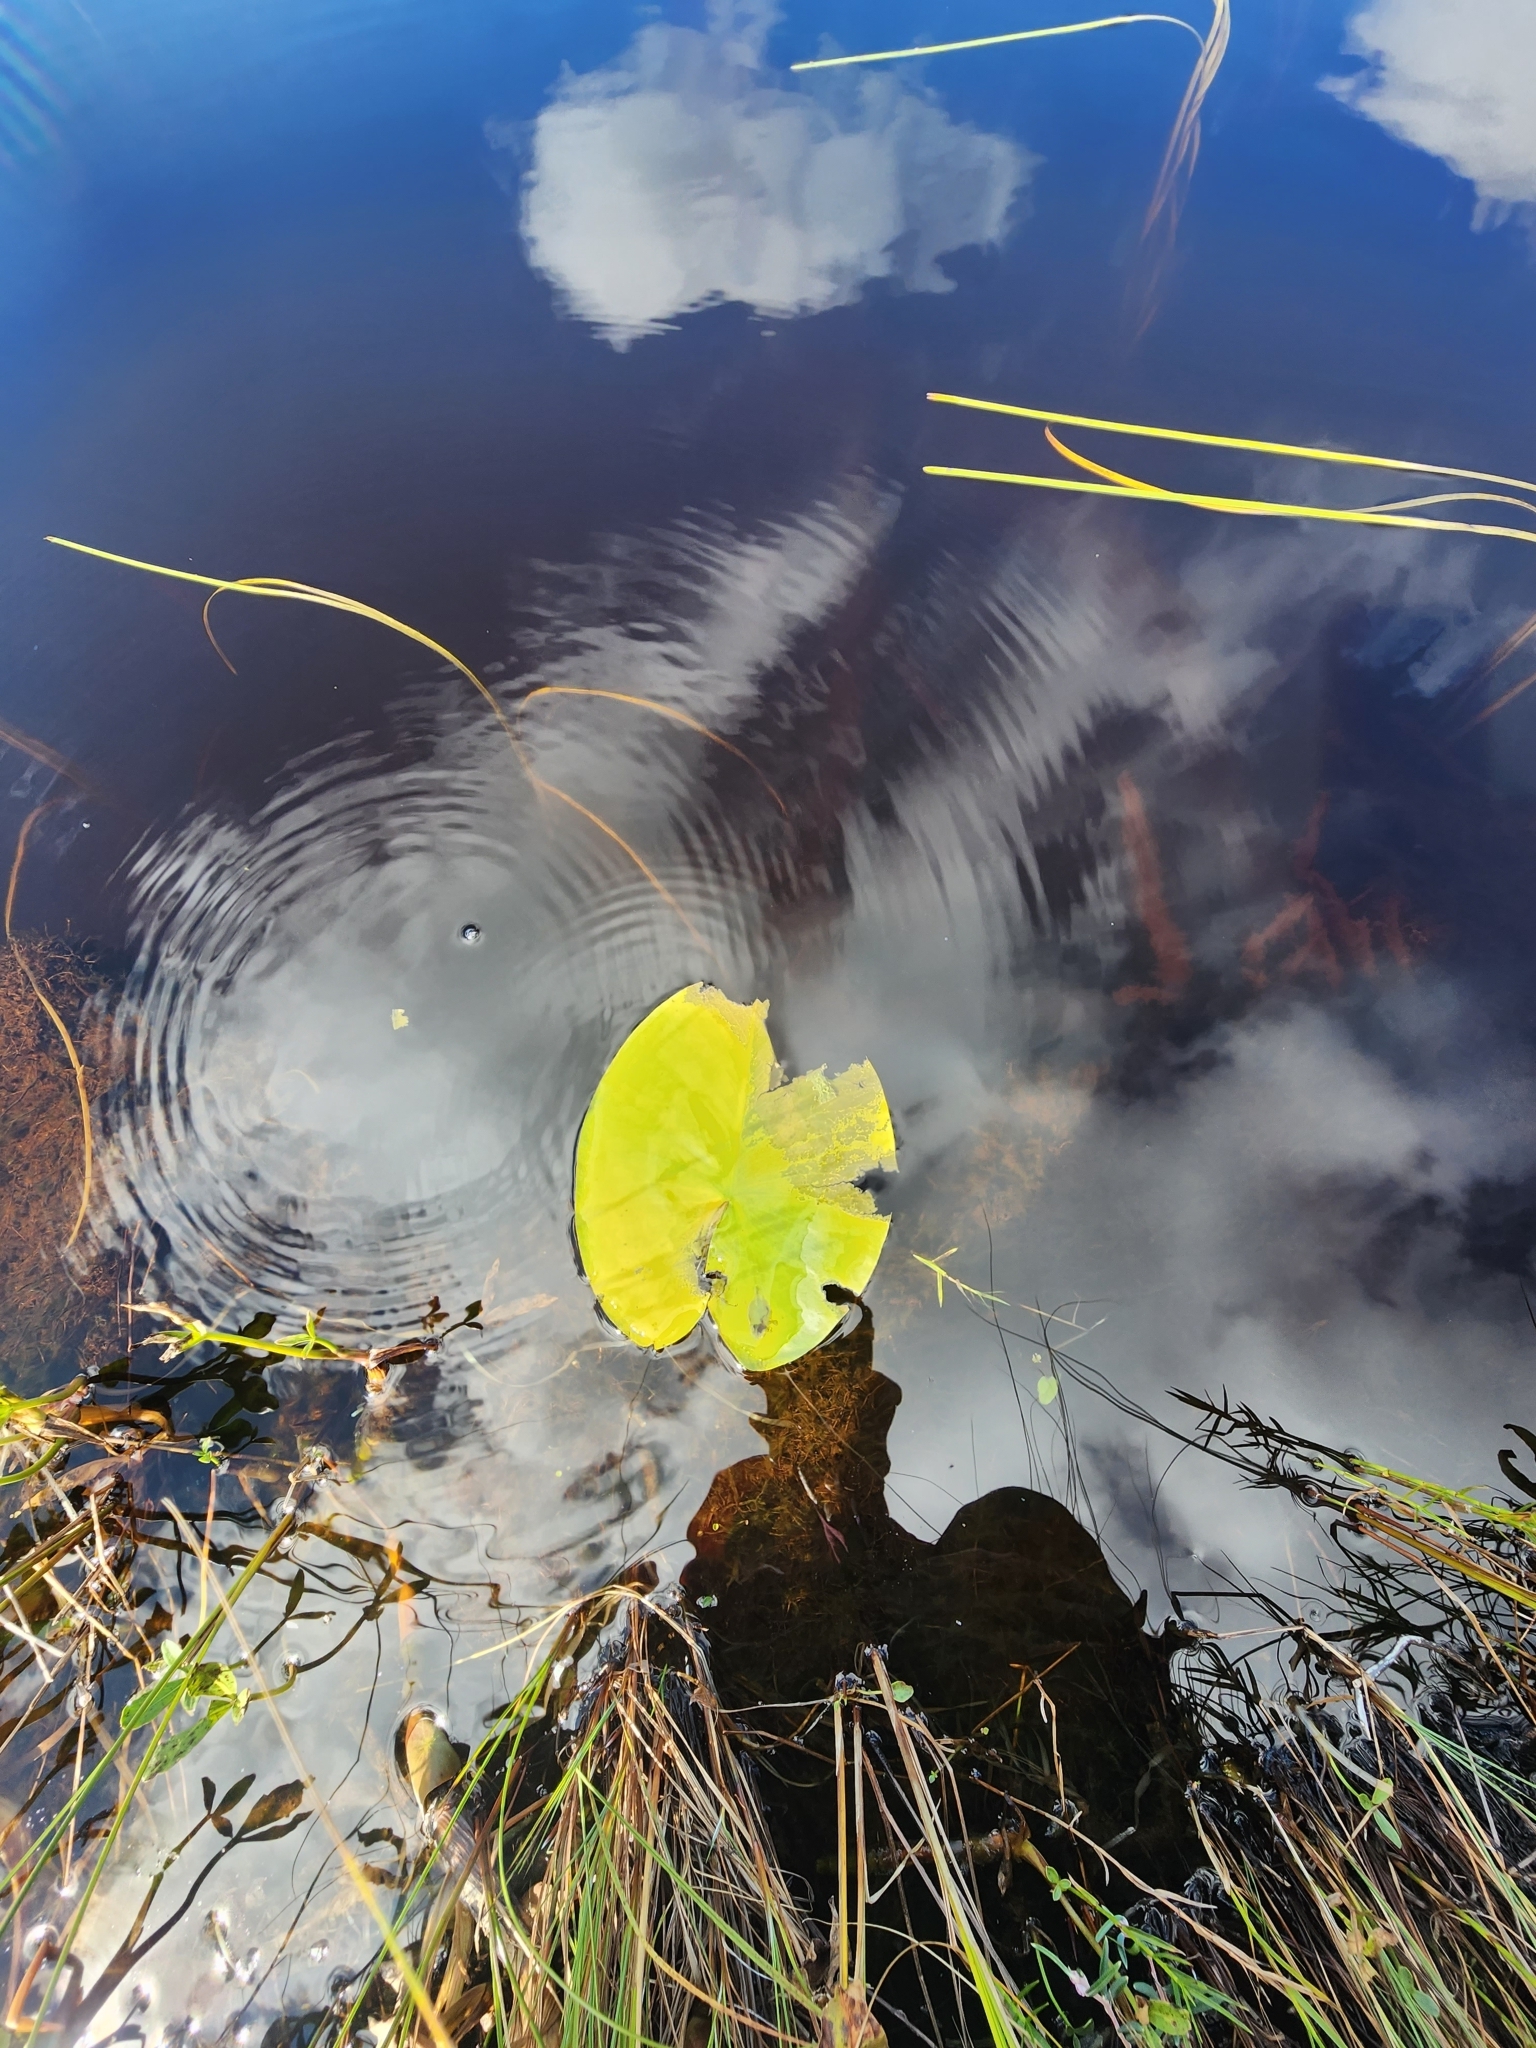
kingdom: Plantae
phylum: Tracheophyta
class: Magnoliopsida
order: Nymphaeales
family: Nymphaeaceae
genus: Nuphar
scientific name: Nuphar variegata
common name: Beaver-root
